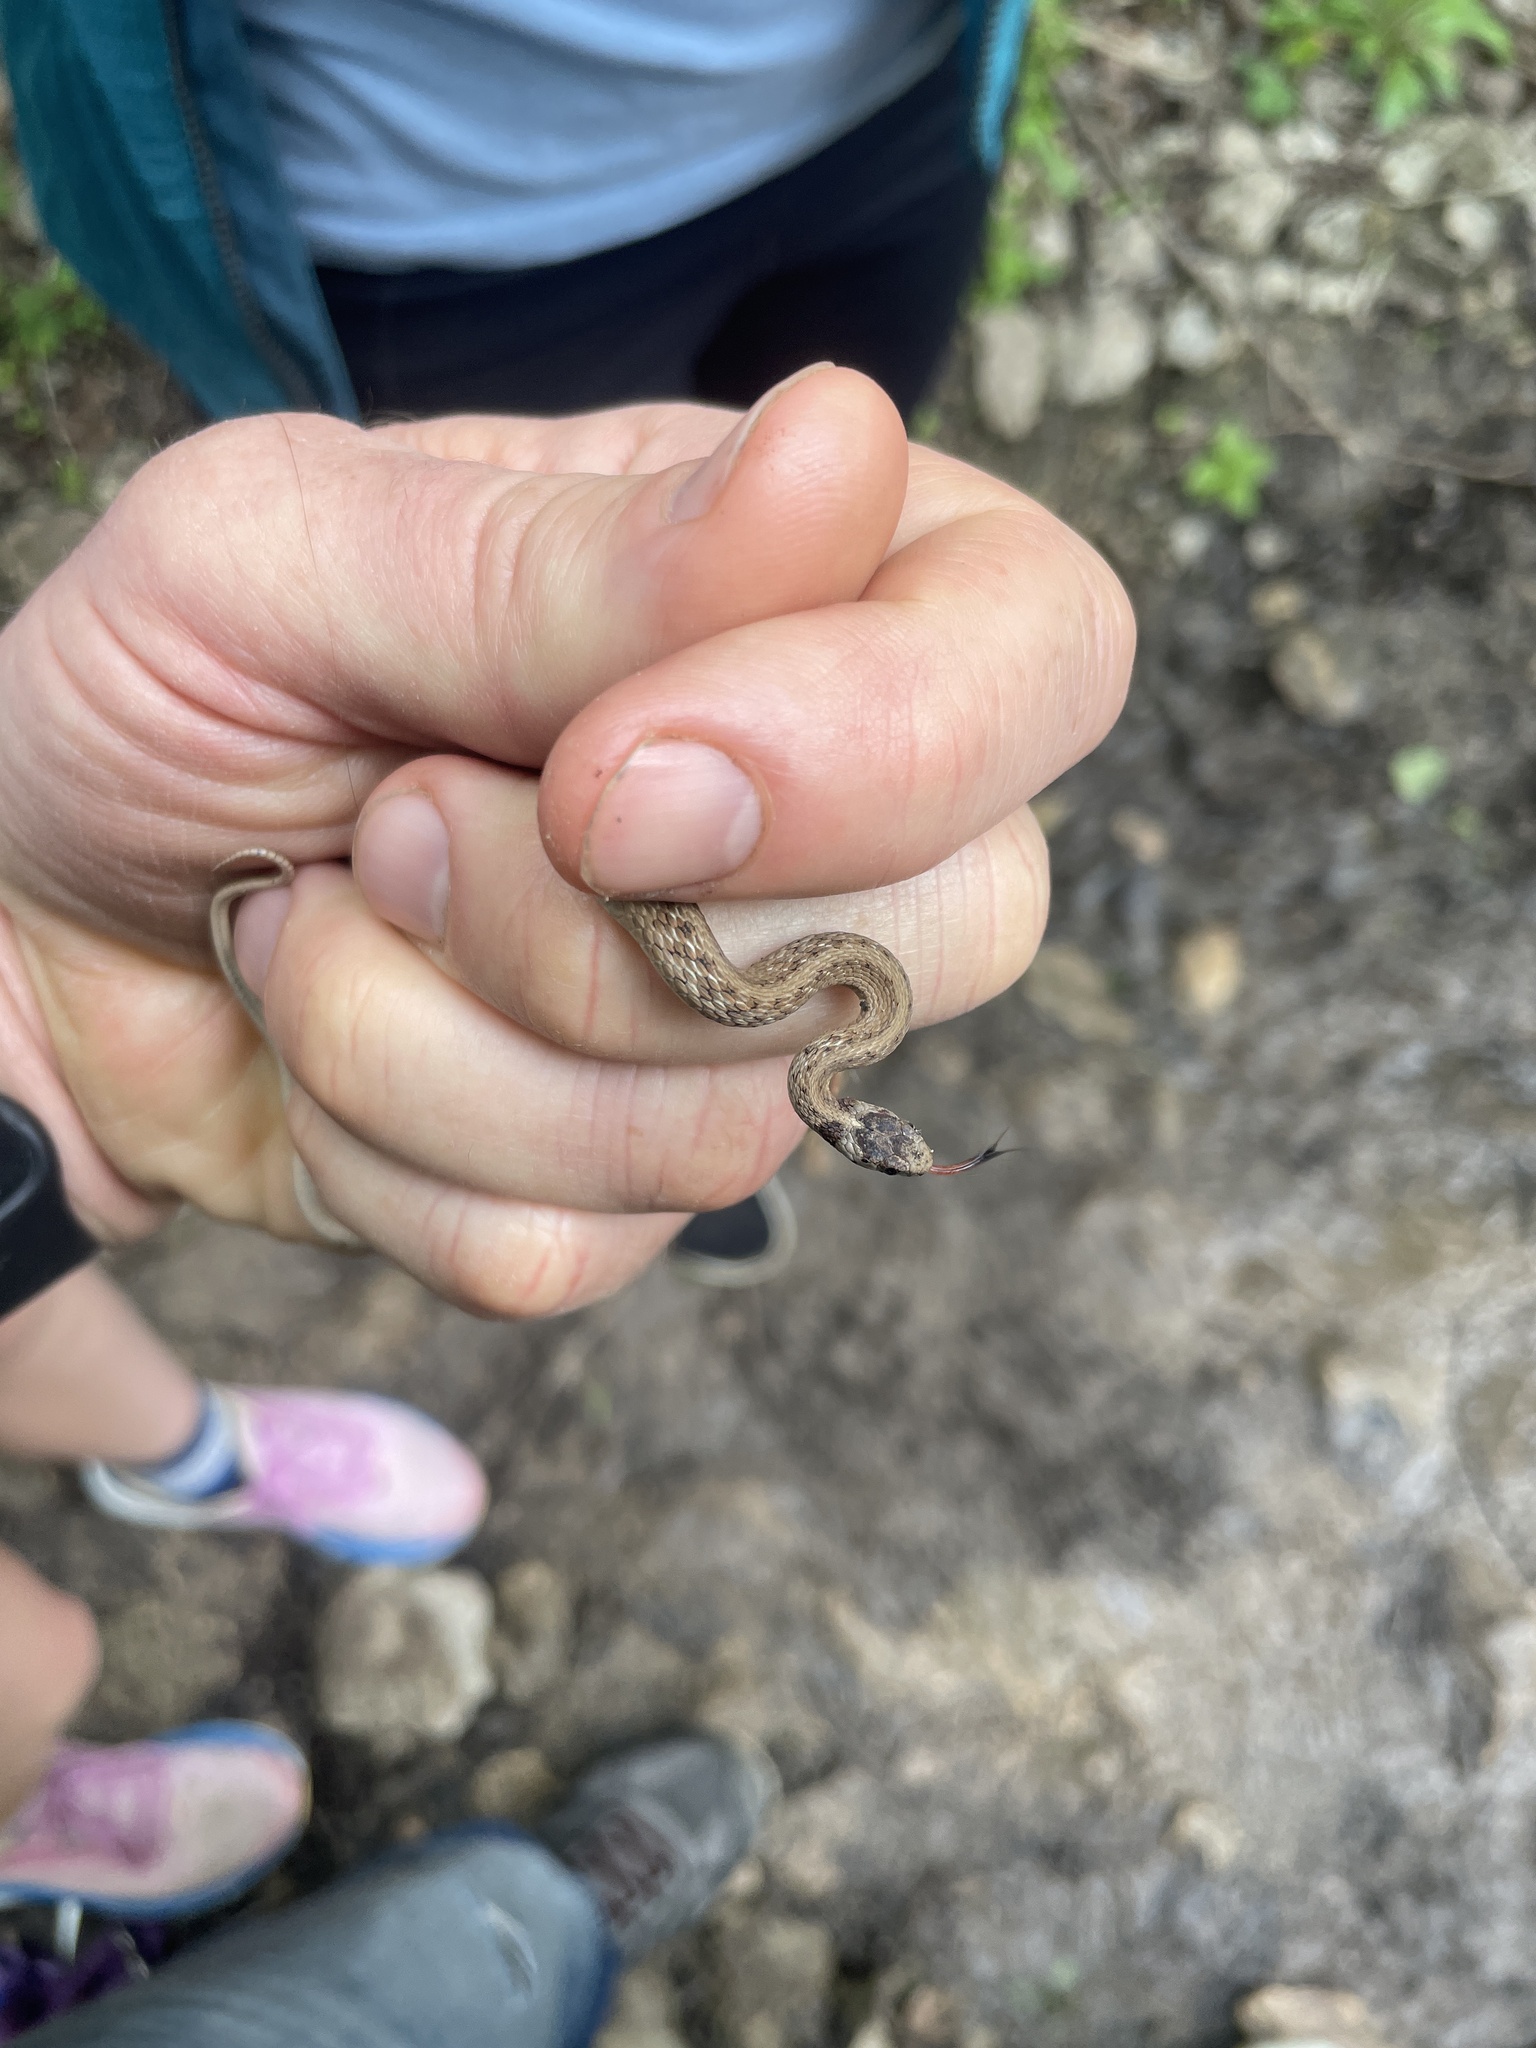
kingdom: Animalia
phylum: Chordata
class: Squamata
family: Colubridae
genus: Storeria
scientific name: Storeria dekayi
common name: (dekay’s) brown snake
